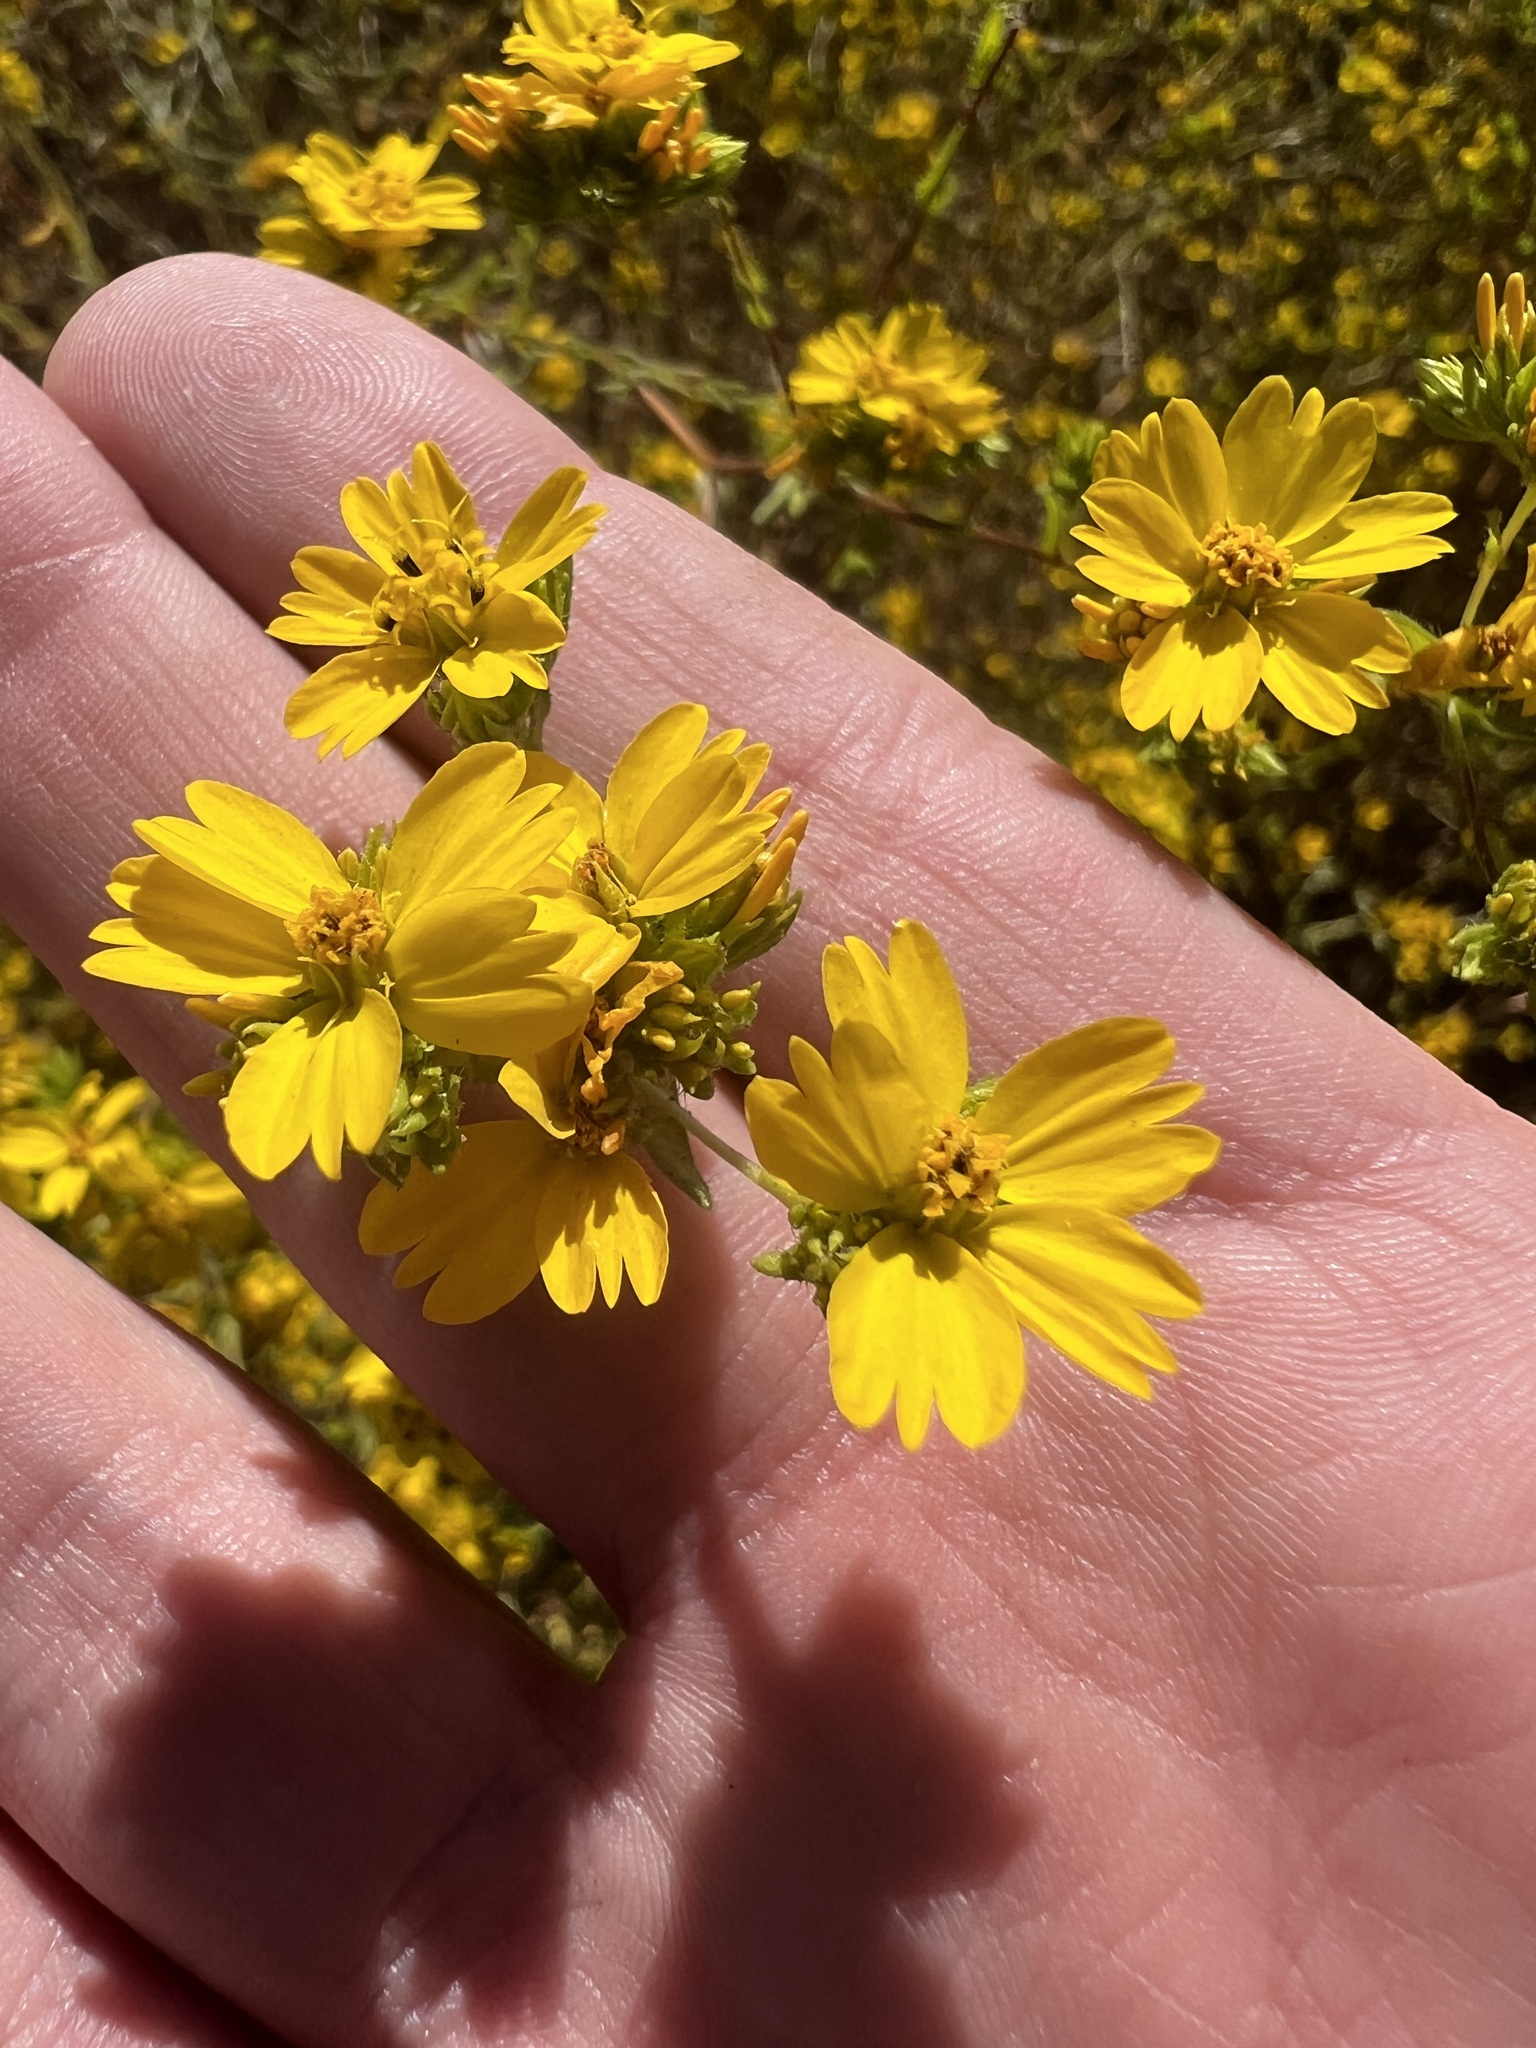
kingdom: Plantae
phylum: Tracheophyta
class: Magnoliopsida
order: Asterales
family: Asteraceae
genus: Deinandra
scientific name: Deinandra fasciculata
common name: Clustered tarweed
